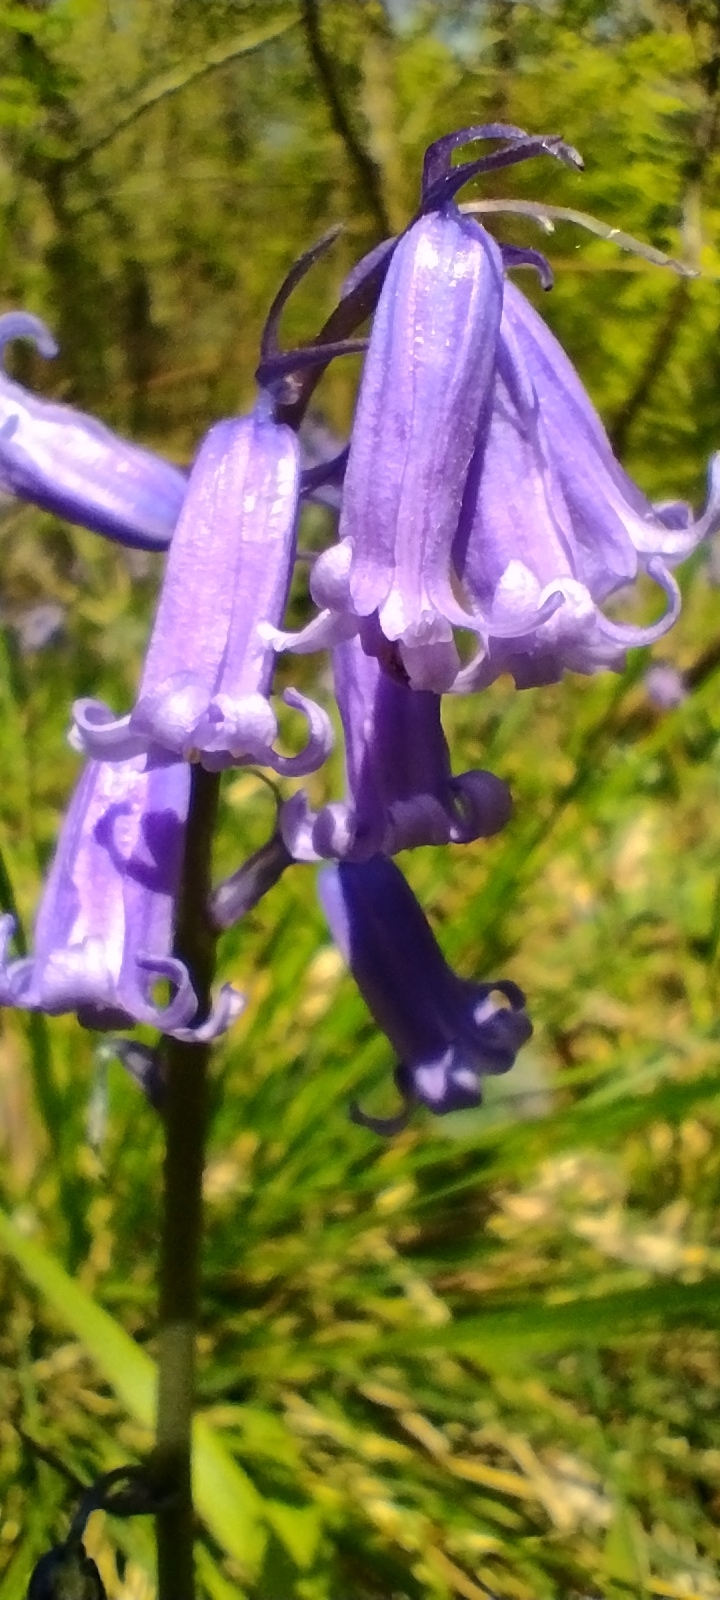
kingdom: Plantae
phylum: Tracheophyta
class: Liliopsida
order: Asparagales
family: Asparagaceae
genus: Hyacinthoides
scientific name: Hyacinthoides non-scripta
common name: Bluebell
